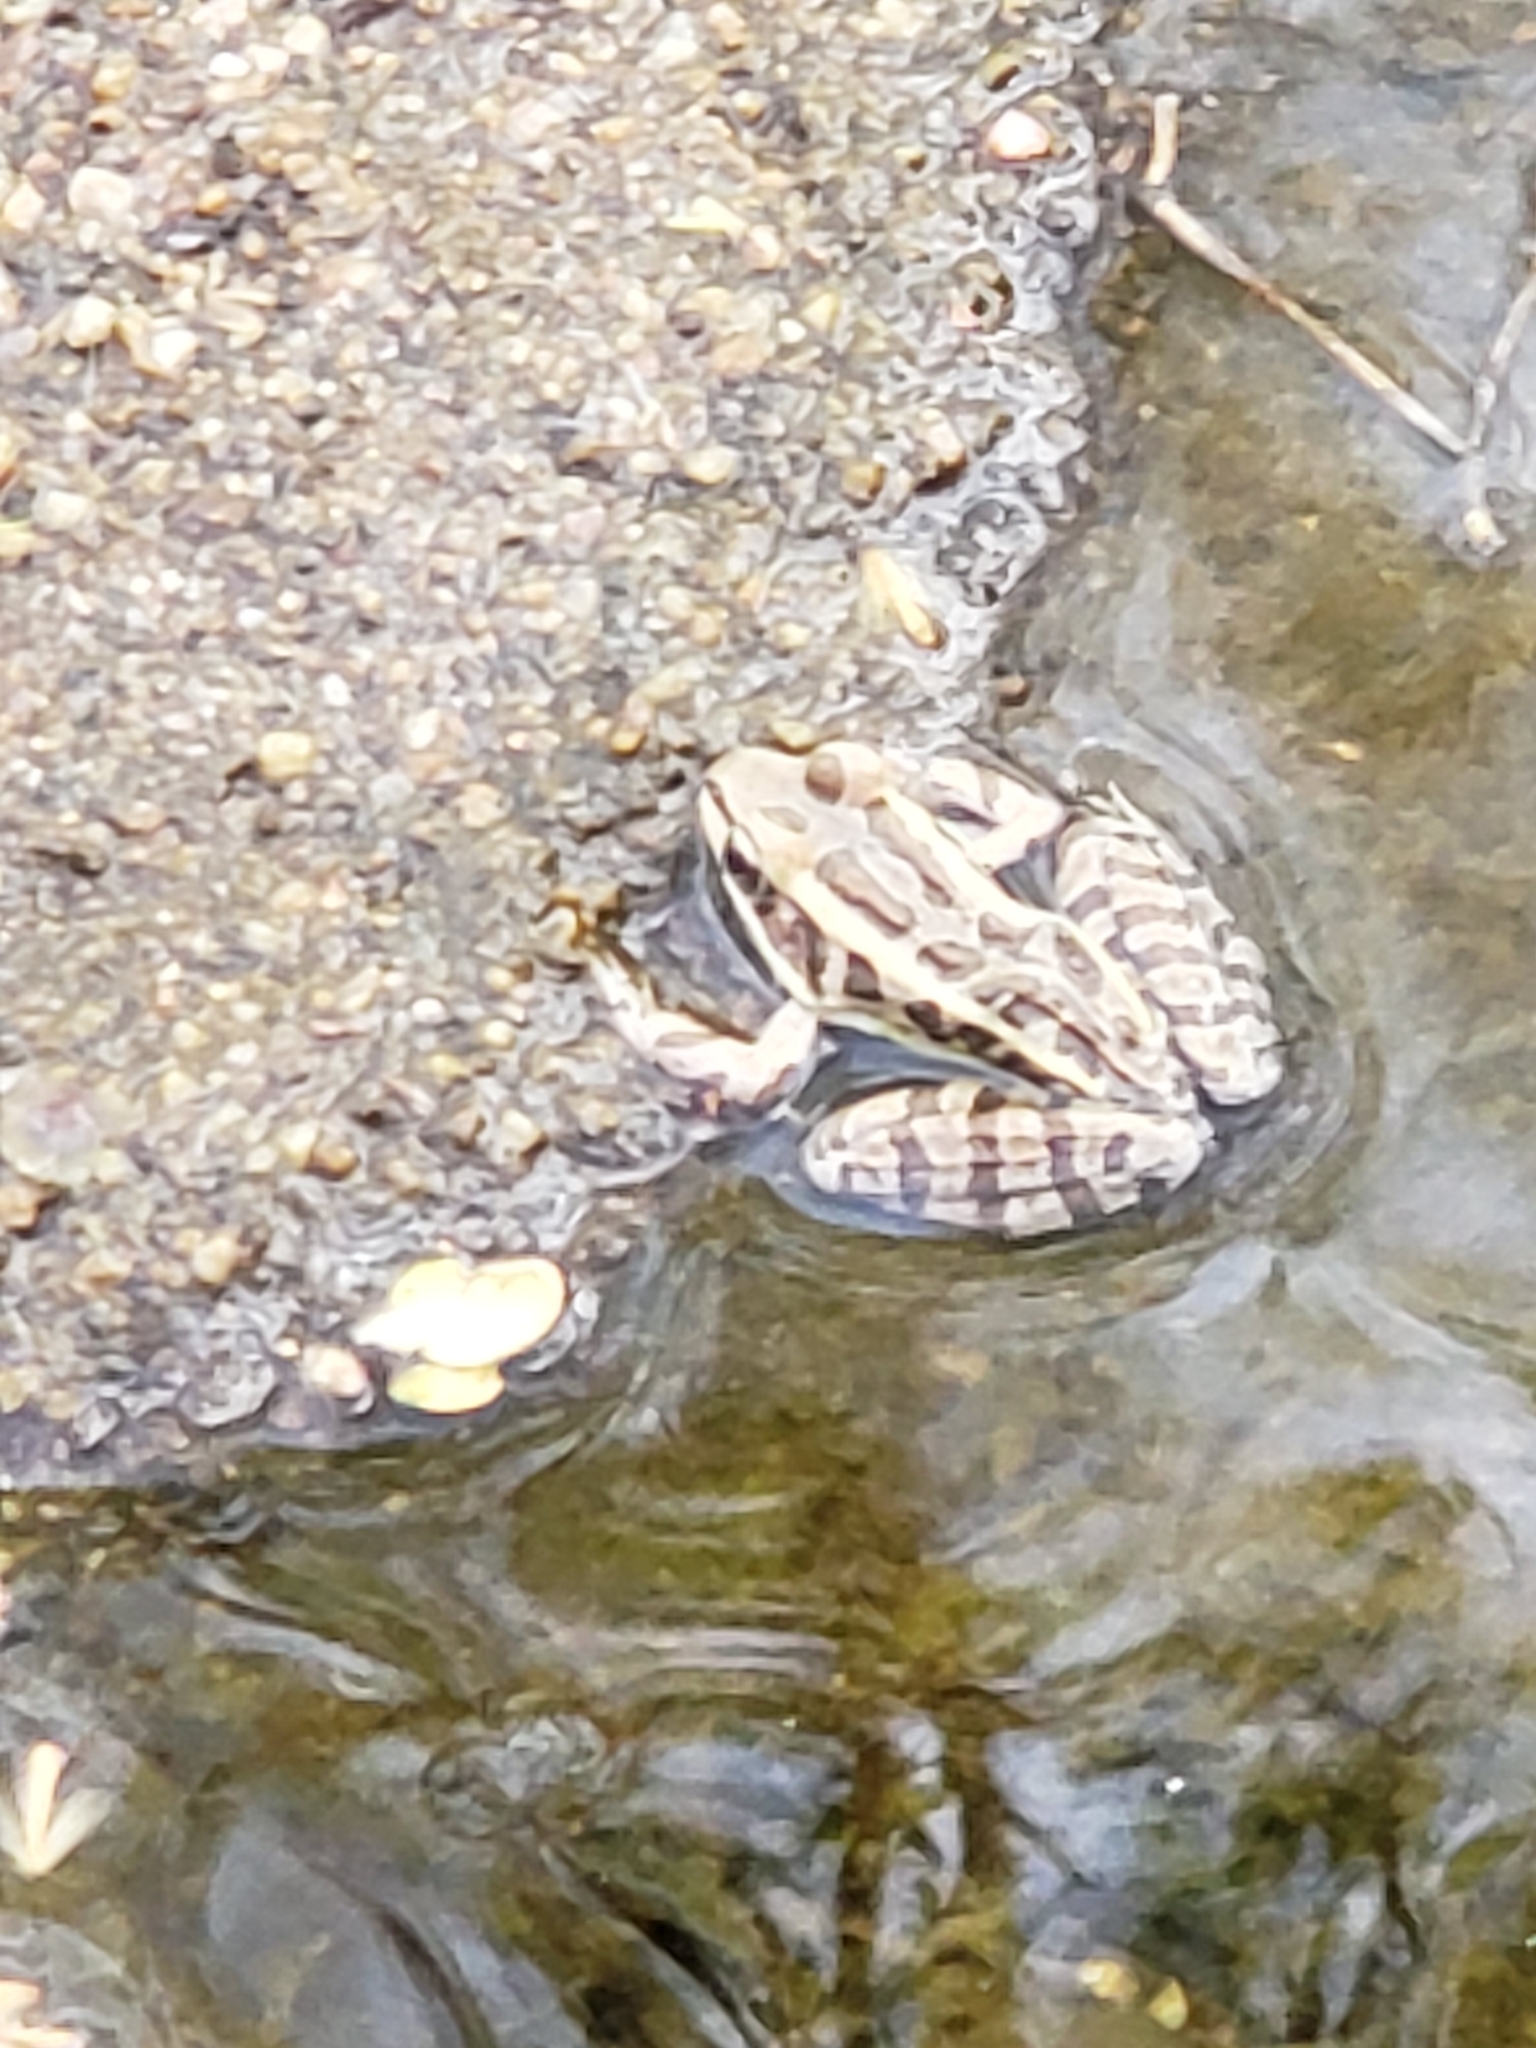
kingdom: Animalia
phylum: Chordata
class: Amphibia
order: Anura
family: Ranidae
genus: Lithobates
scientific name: Lithobates palustris
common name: Pickerel frog
